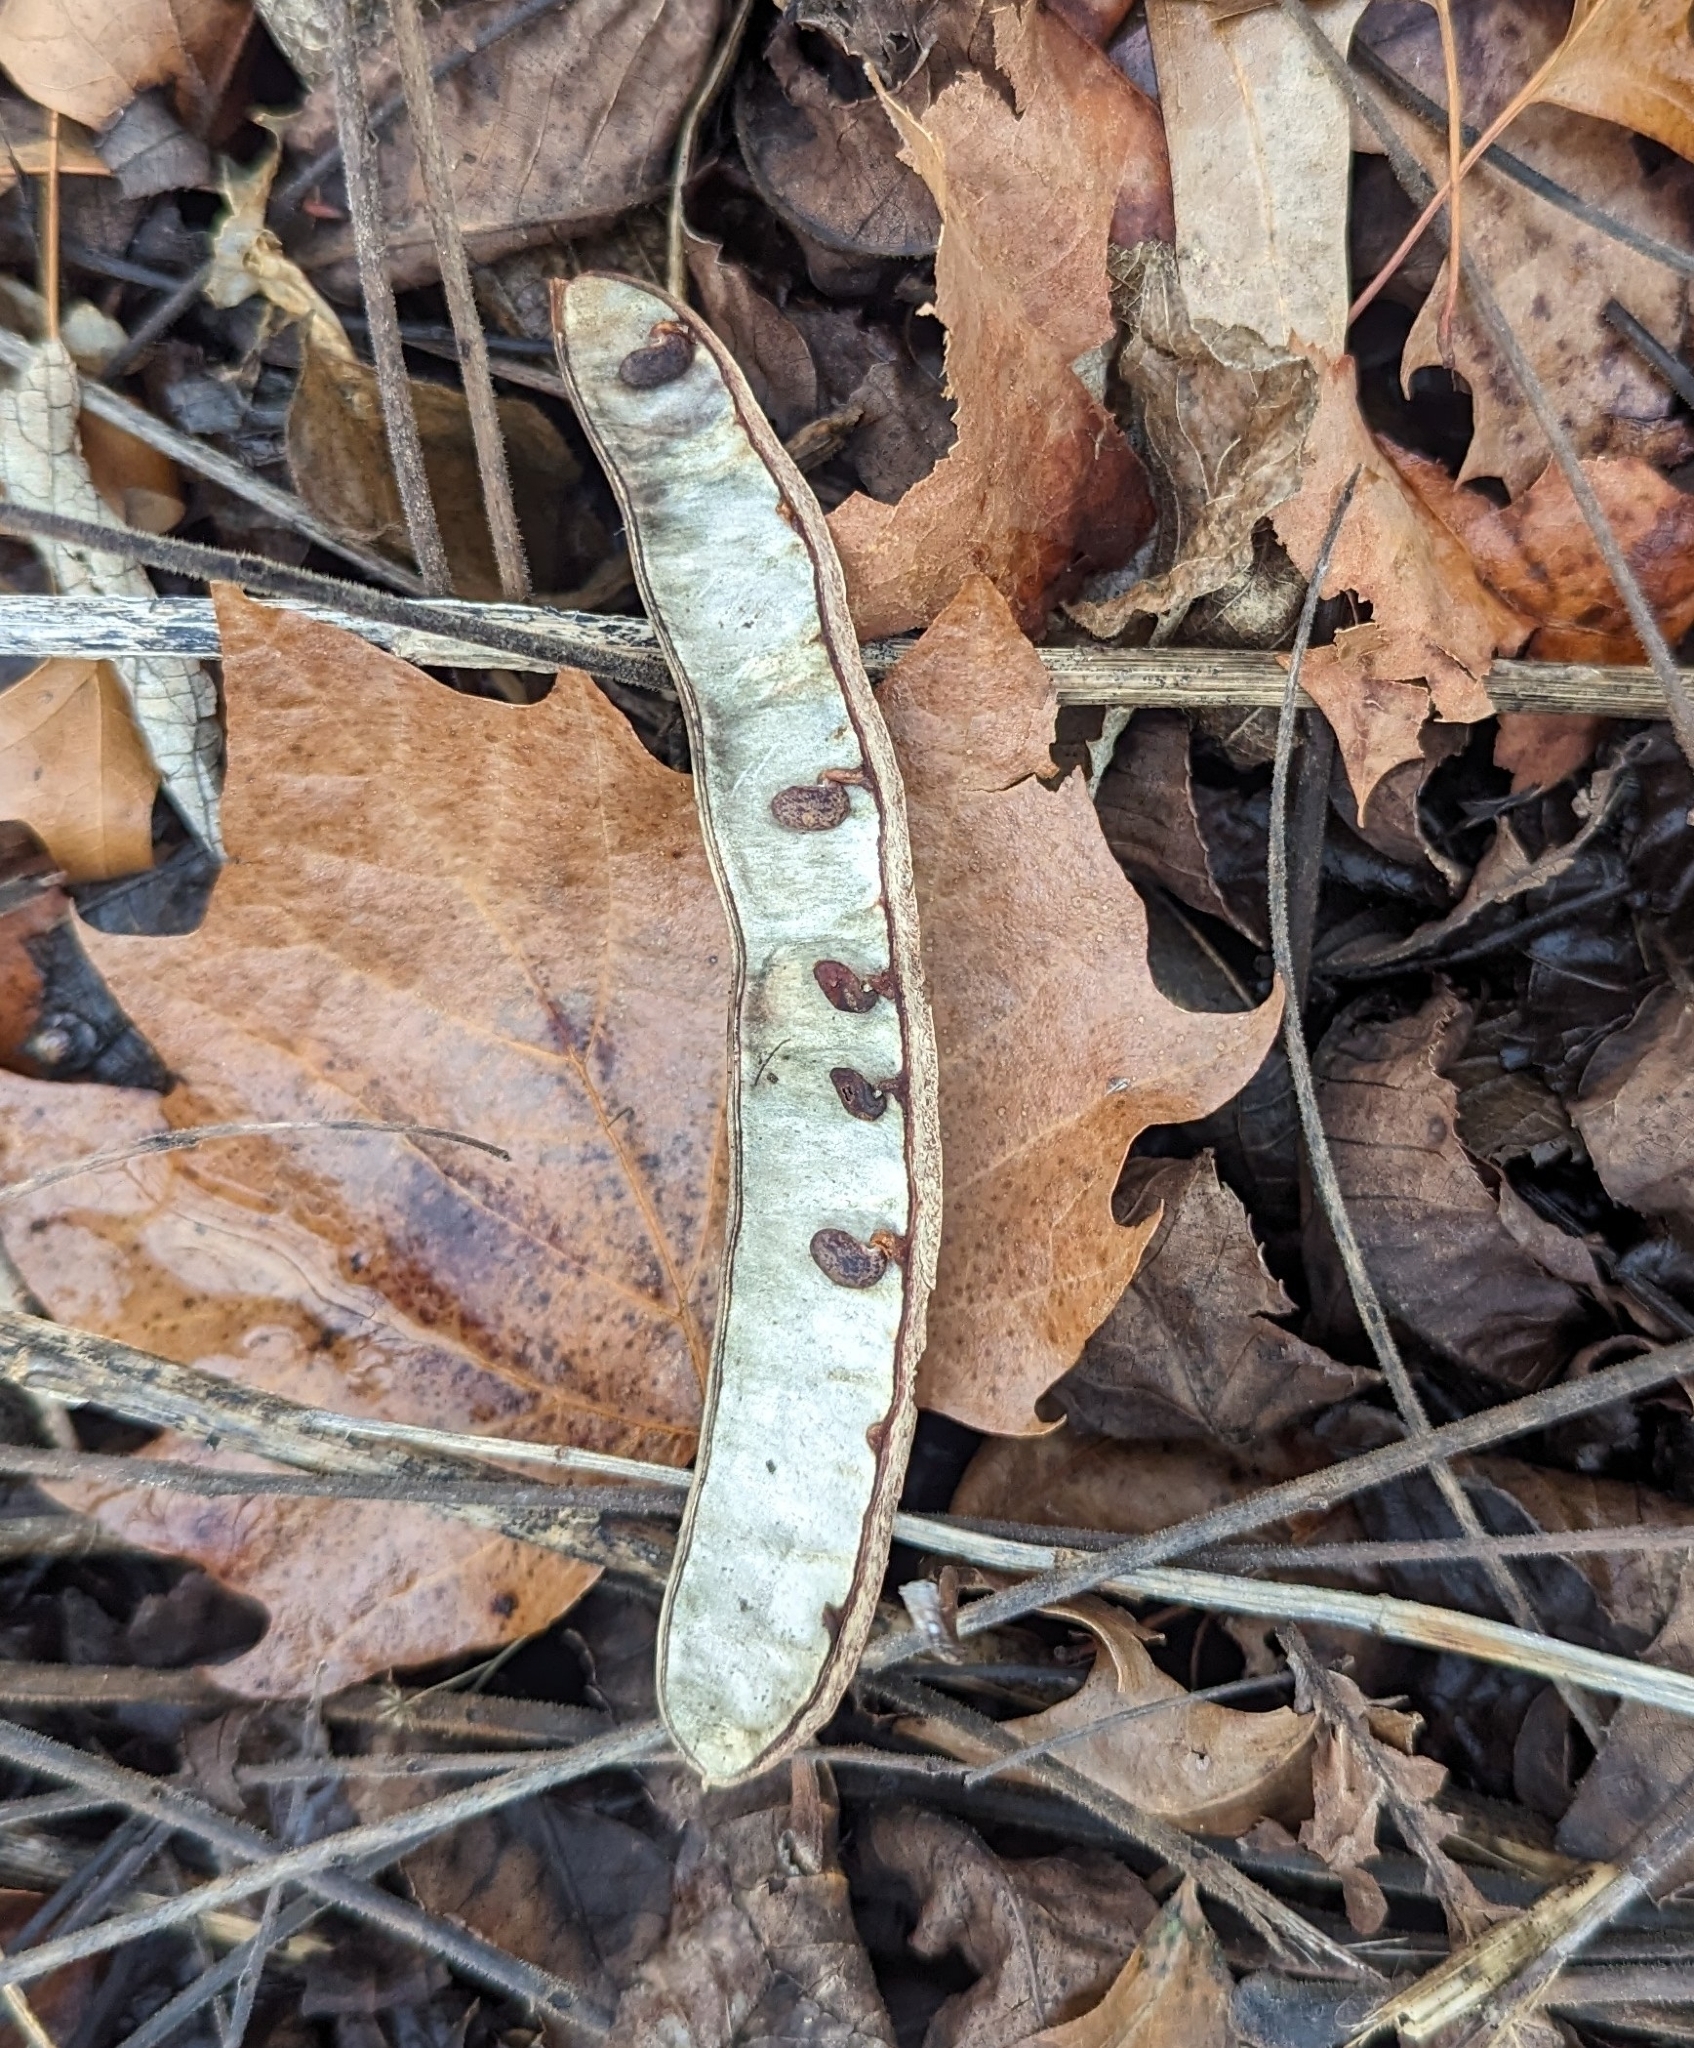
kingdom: Plantae
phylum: Tracheophyta
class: Magnoliopsida
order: Fabales
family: Fabaceae
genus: Robinia
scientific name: Robinia pseudoacacia
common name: Black locust
